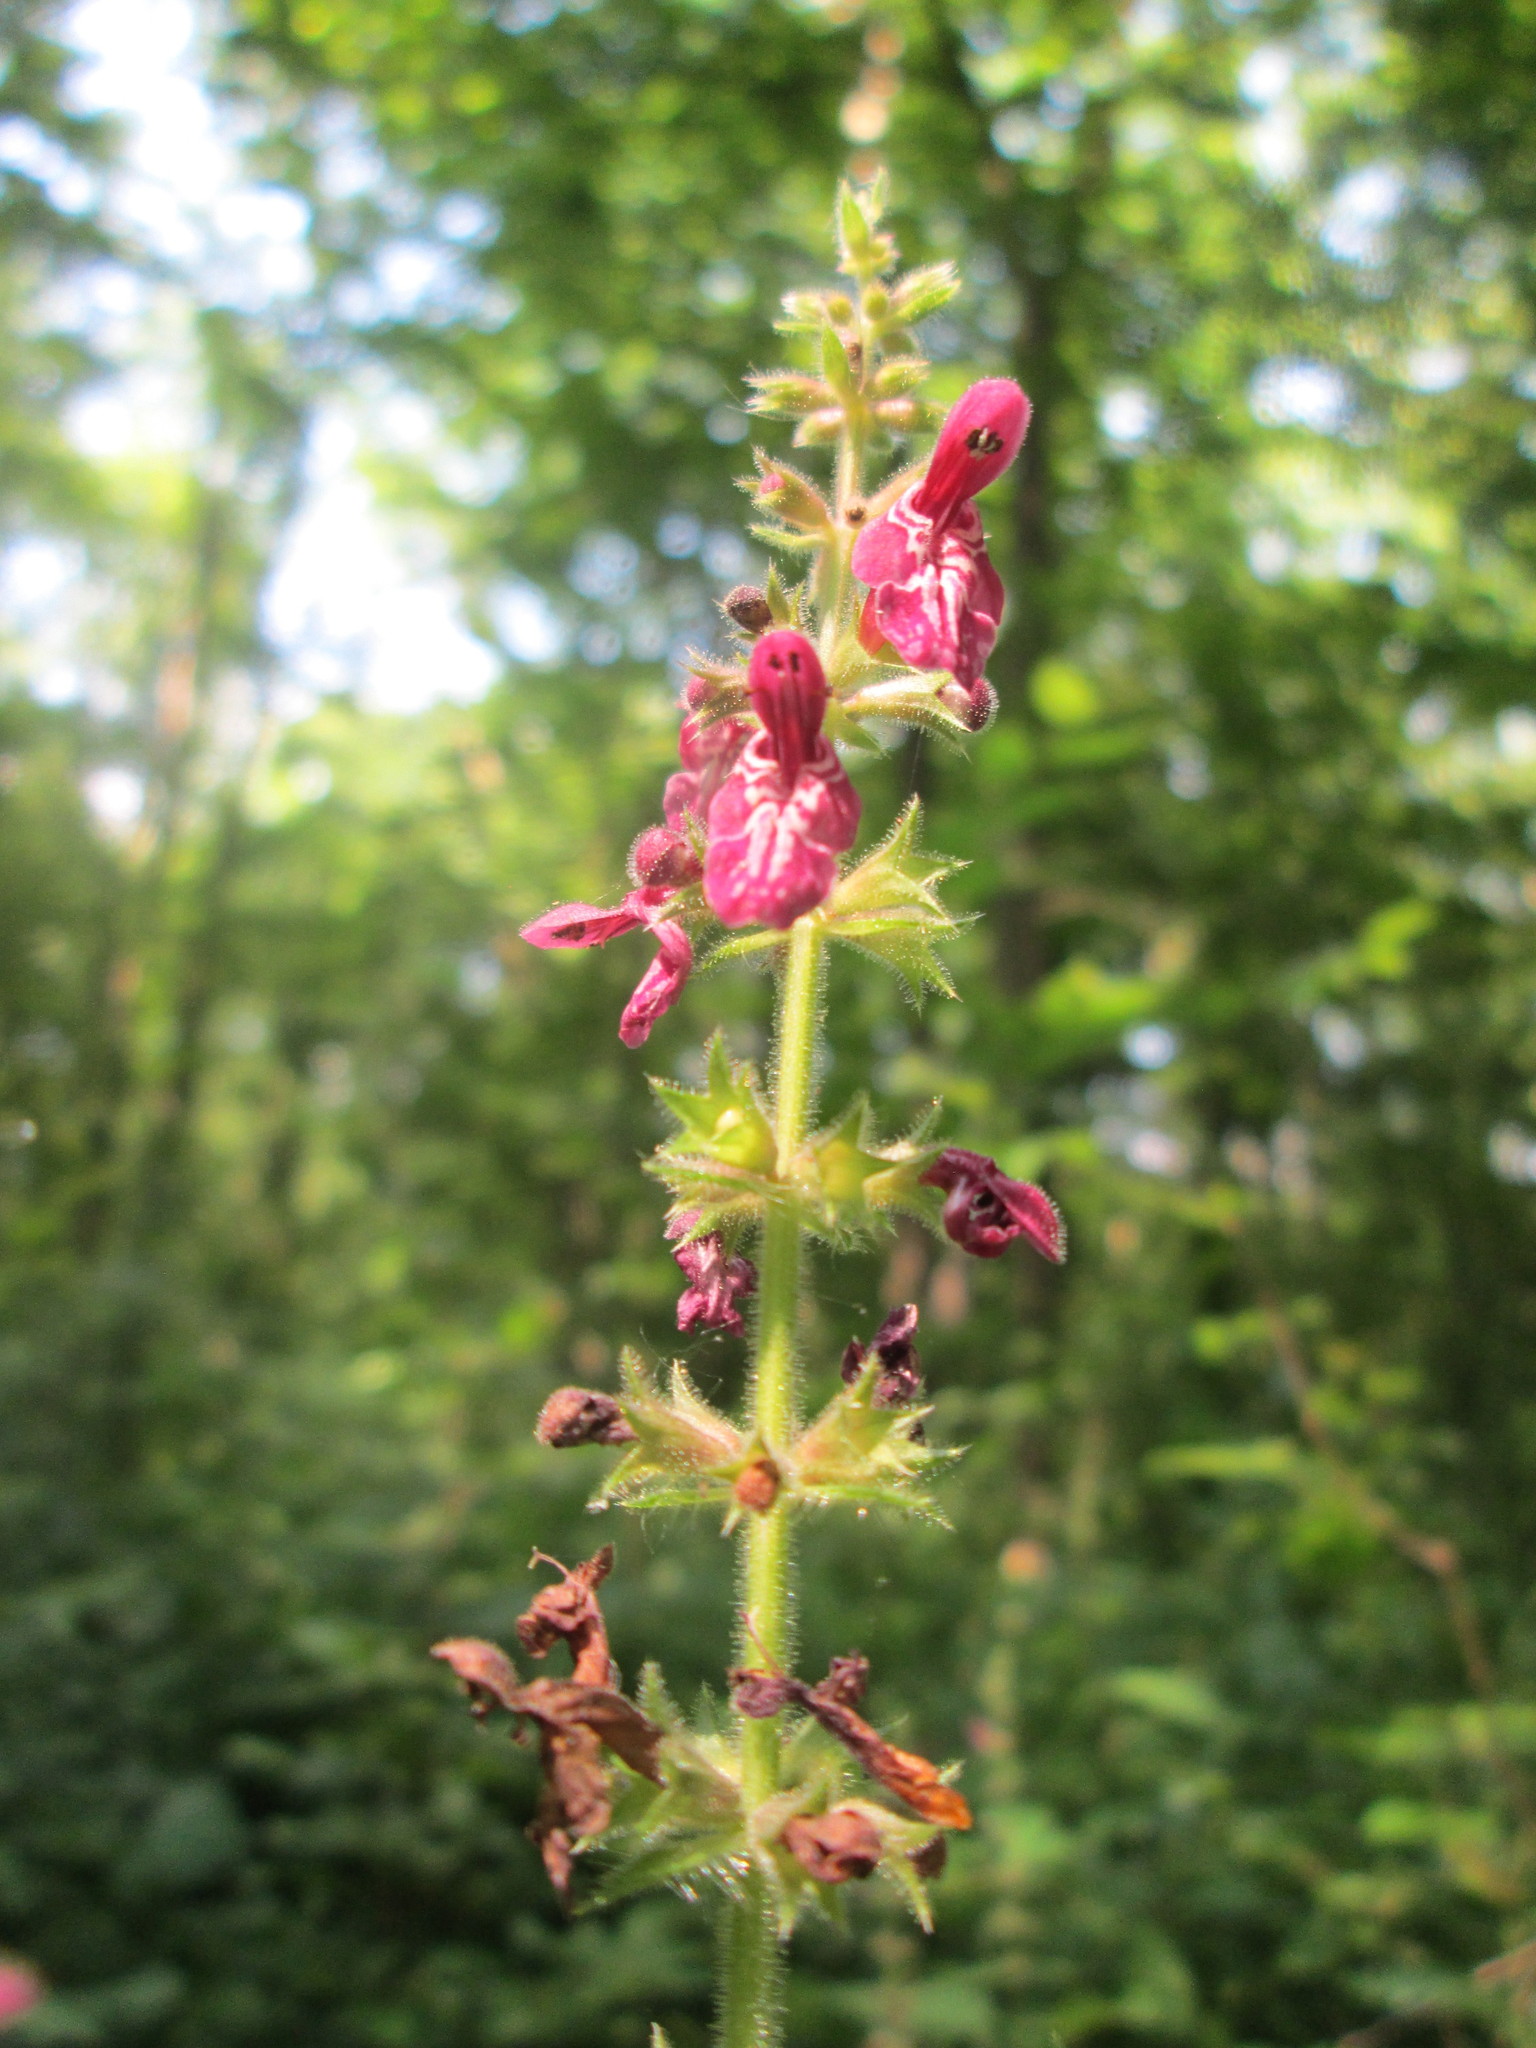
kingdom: Plantae
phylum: Tracheophyta
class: Magnoliopsida
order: Lamiales
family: Lamiaceae
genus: Stachys
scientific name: Stachys sylvatica
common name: Hedge woundwort
